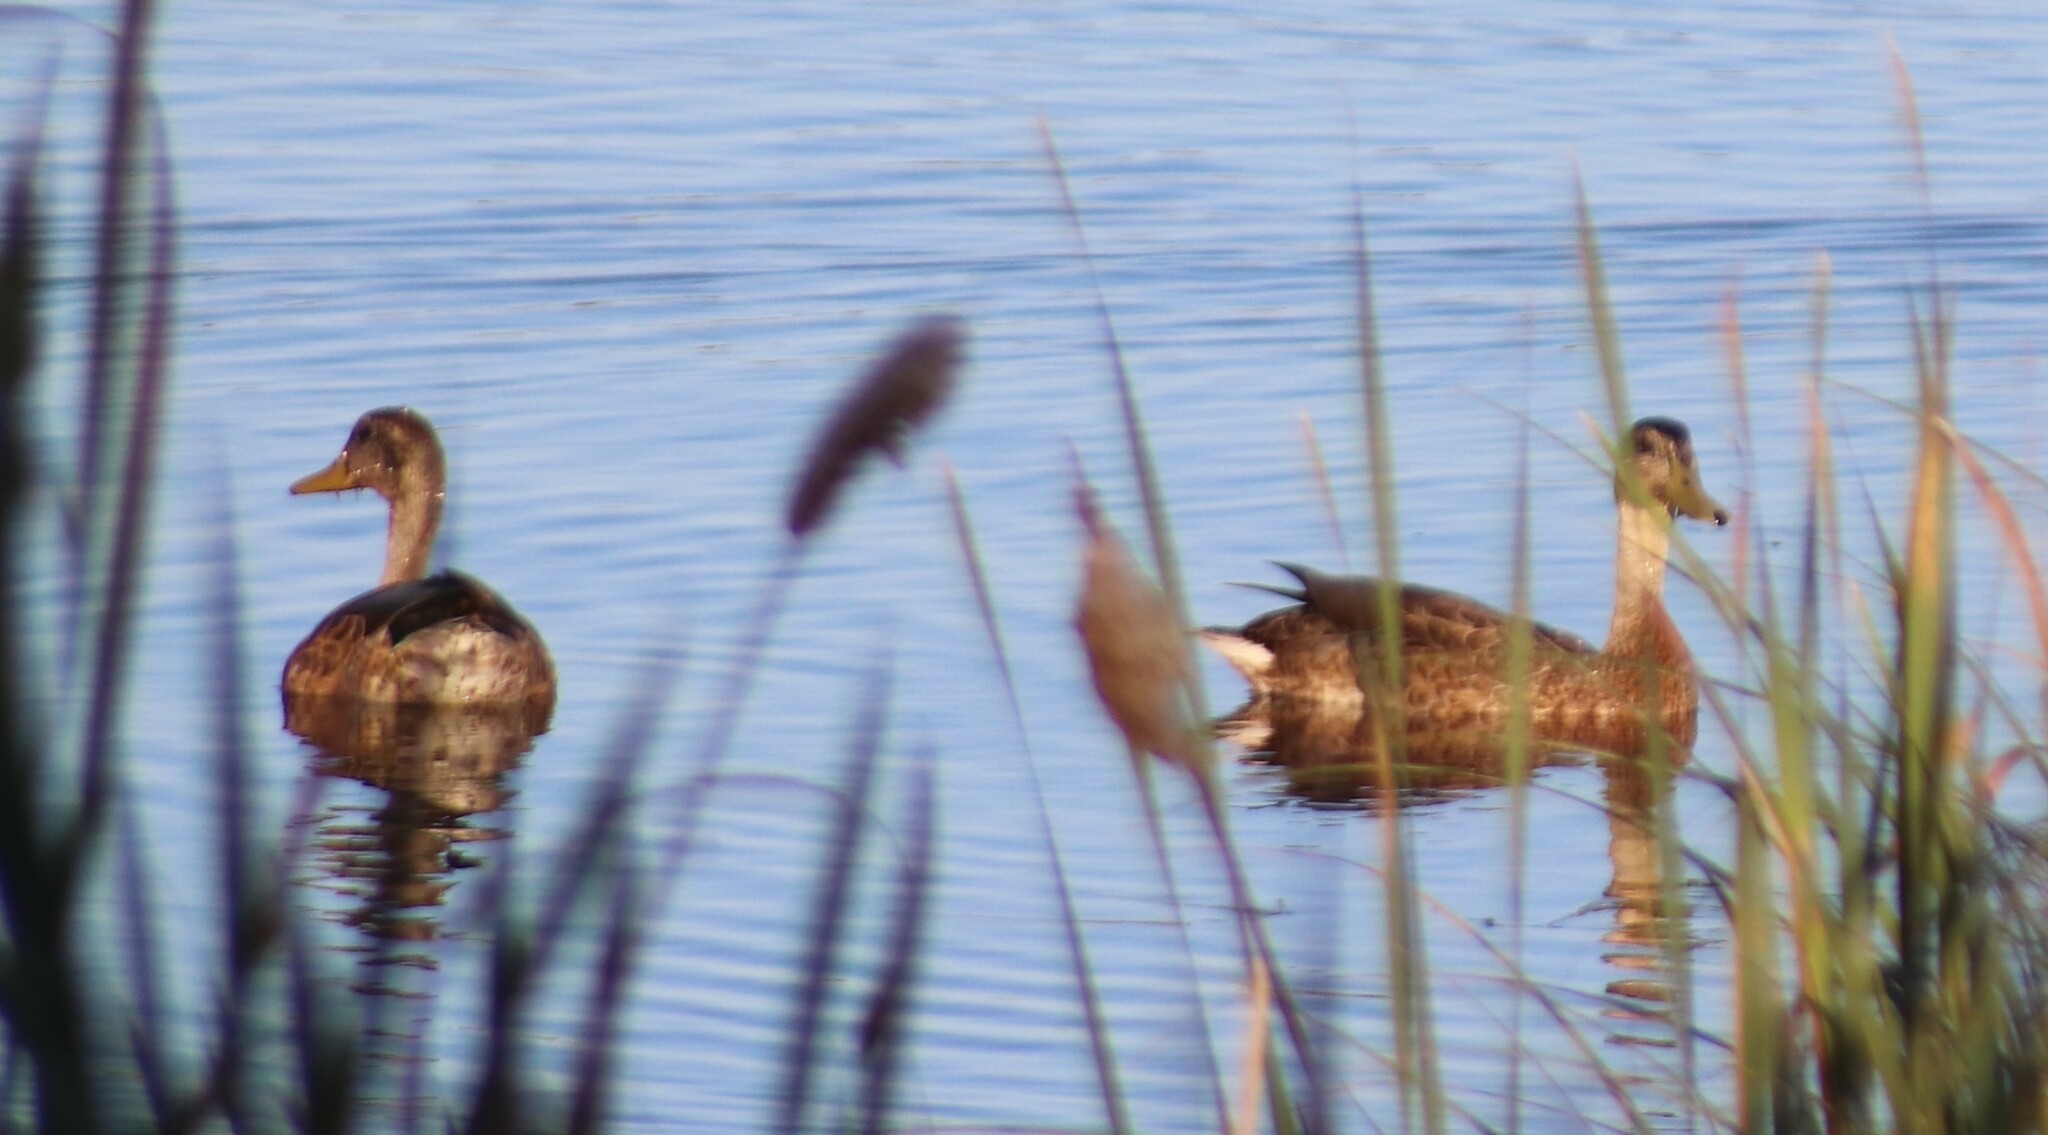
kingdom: Animalia
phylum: Chordata
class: Aves
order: Anseriformes
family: Anatidae
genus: Anas
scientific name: Anas platyrhynchos
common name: Mallard
